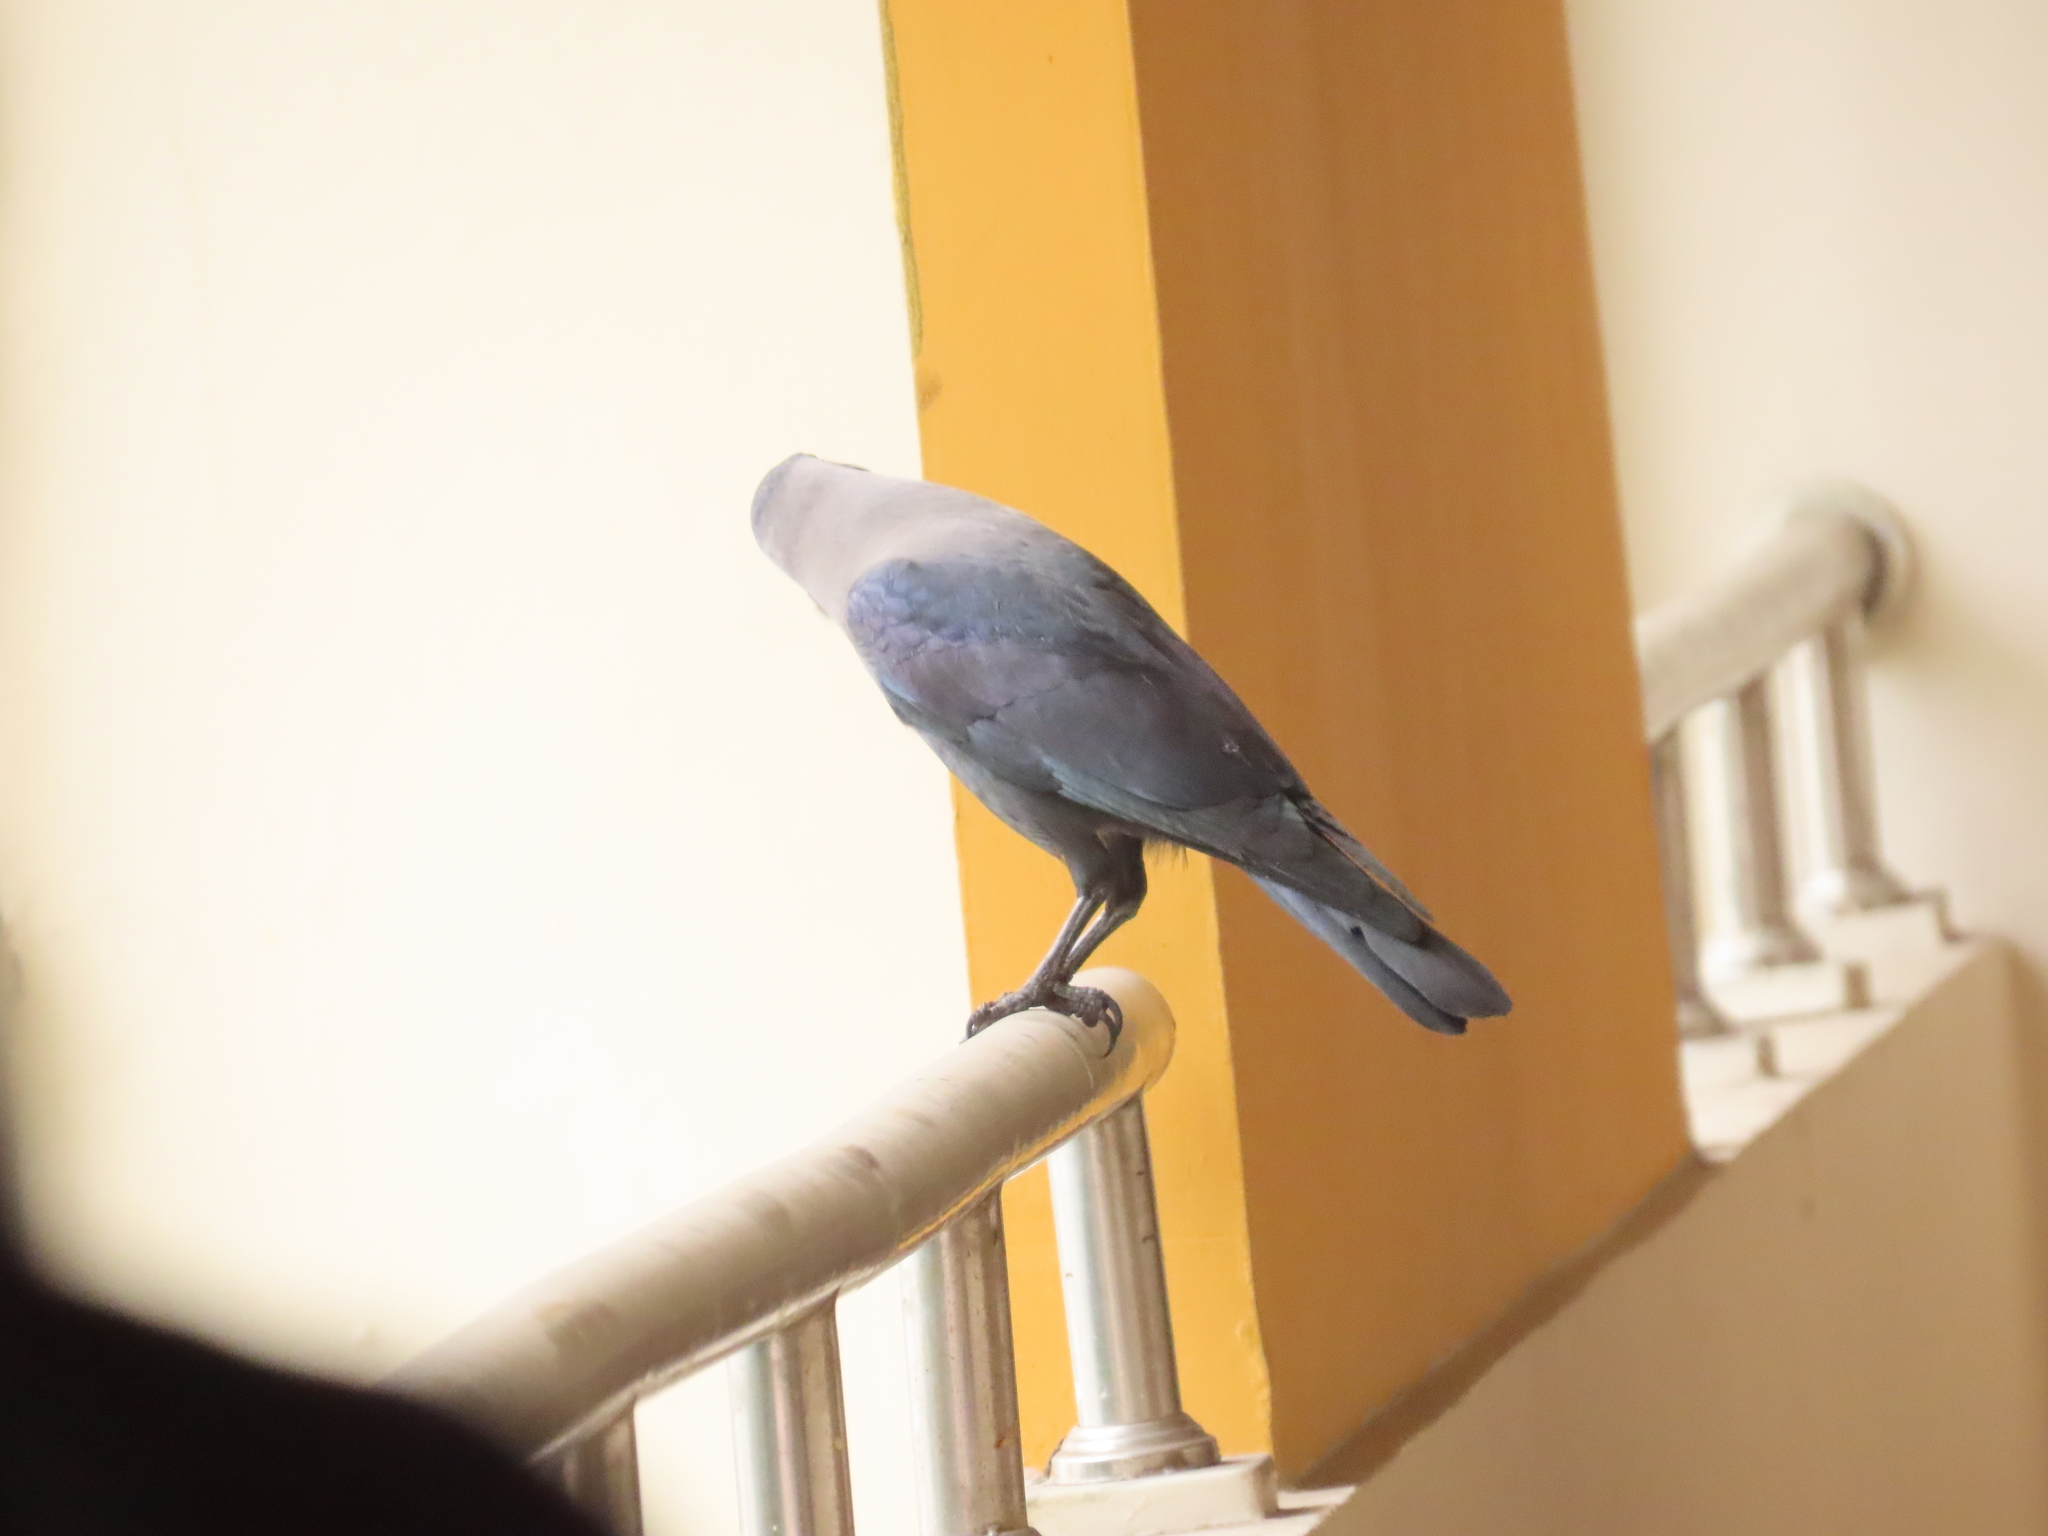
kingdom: Animalia
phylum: Chordata
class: Aves
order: Passeriformes
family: Corvidae
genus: Corvus
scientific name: Corvus splendens
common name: House crow
